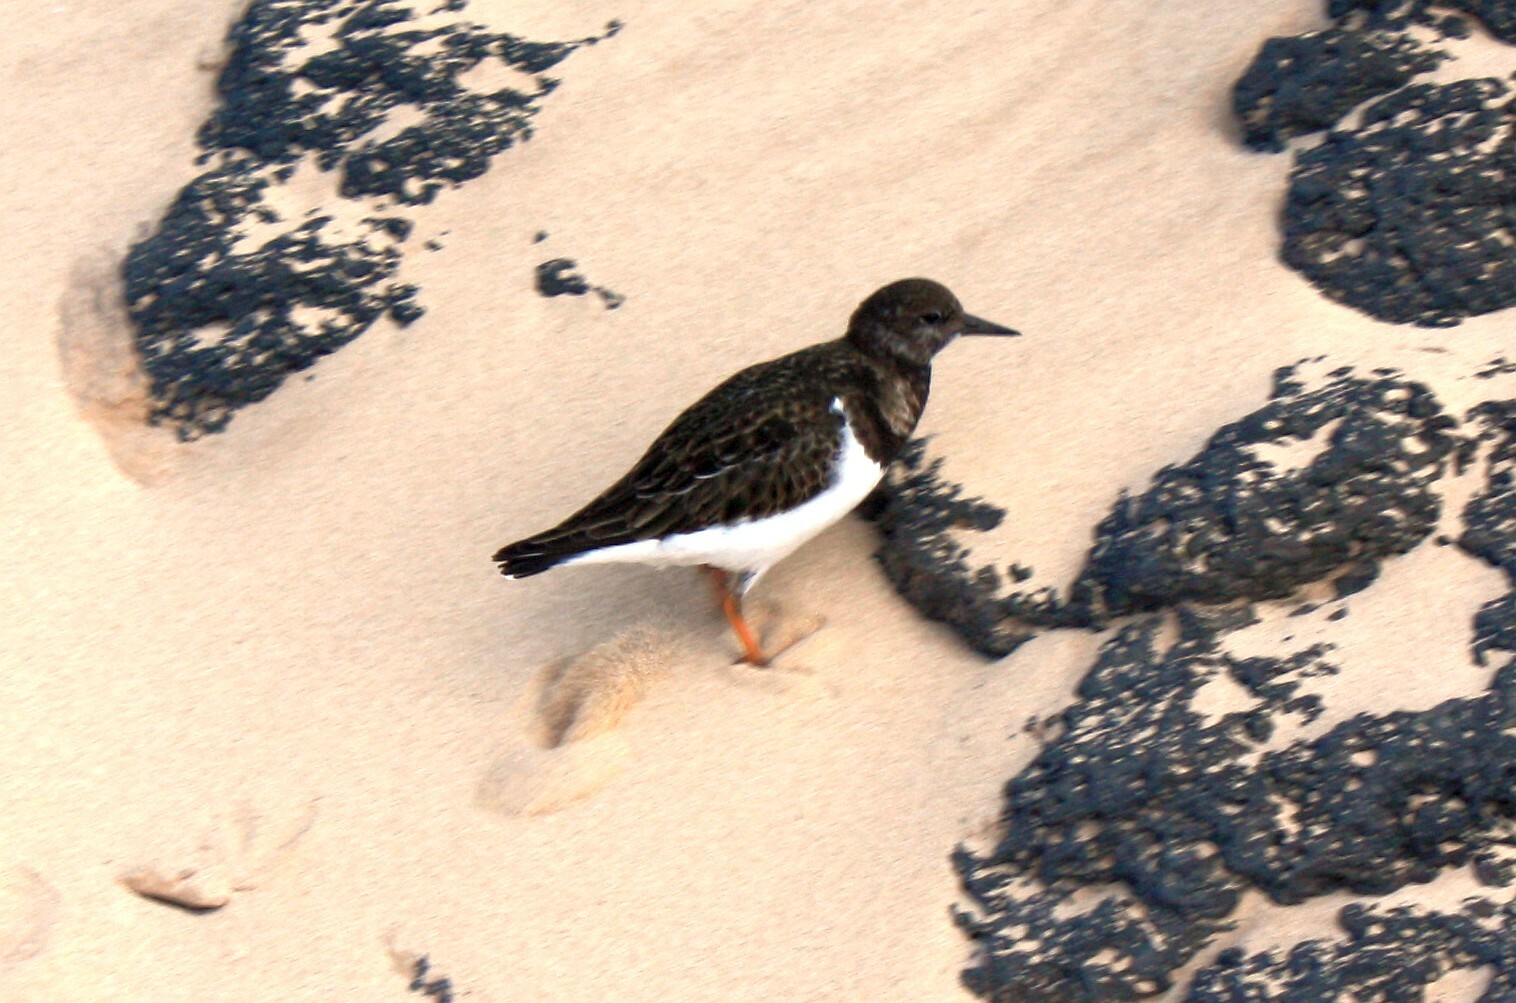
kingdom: Animalia
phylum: Chordata
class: Aves
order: Charadriiformes
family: Scolopacidae
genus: Arenaria
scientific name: Arenaria interpres
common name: Ruddy turnstone
